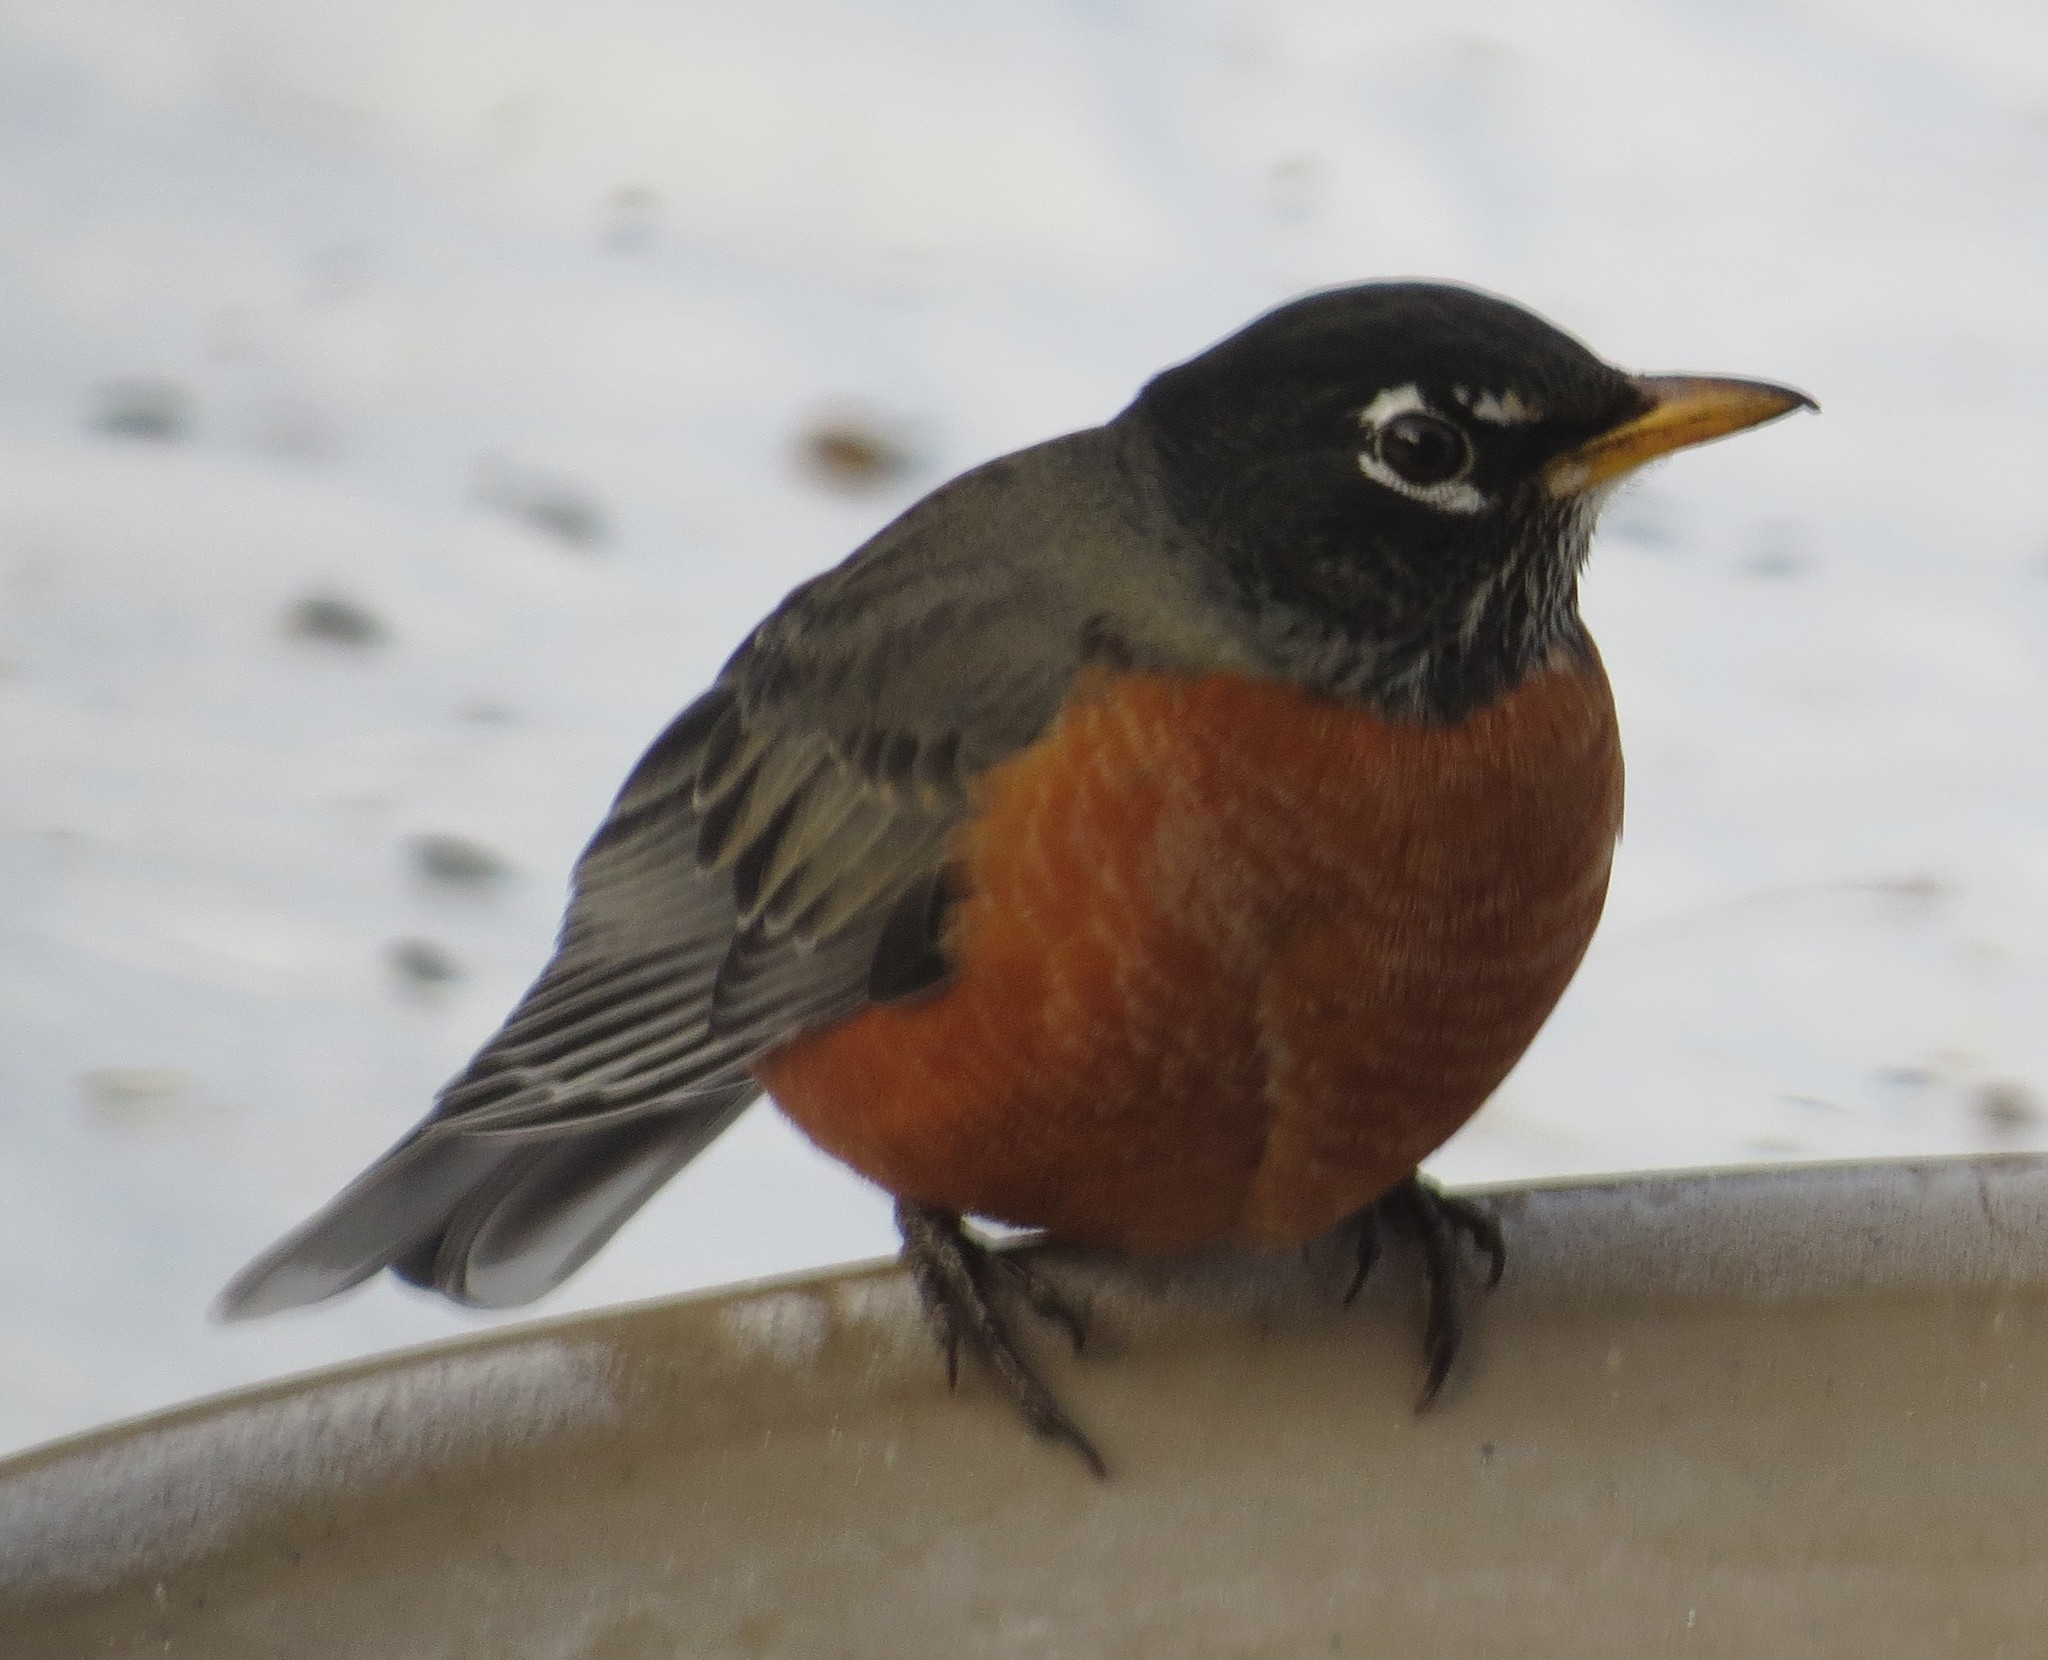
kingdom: Animalia
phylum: Chordata
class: Aves
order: Passeriformes
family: Turdidae
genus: Turdus
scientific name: Turdus migratorius
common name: American robin
